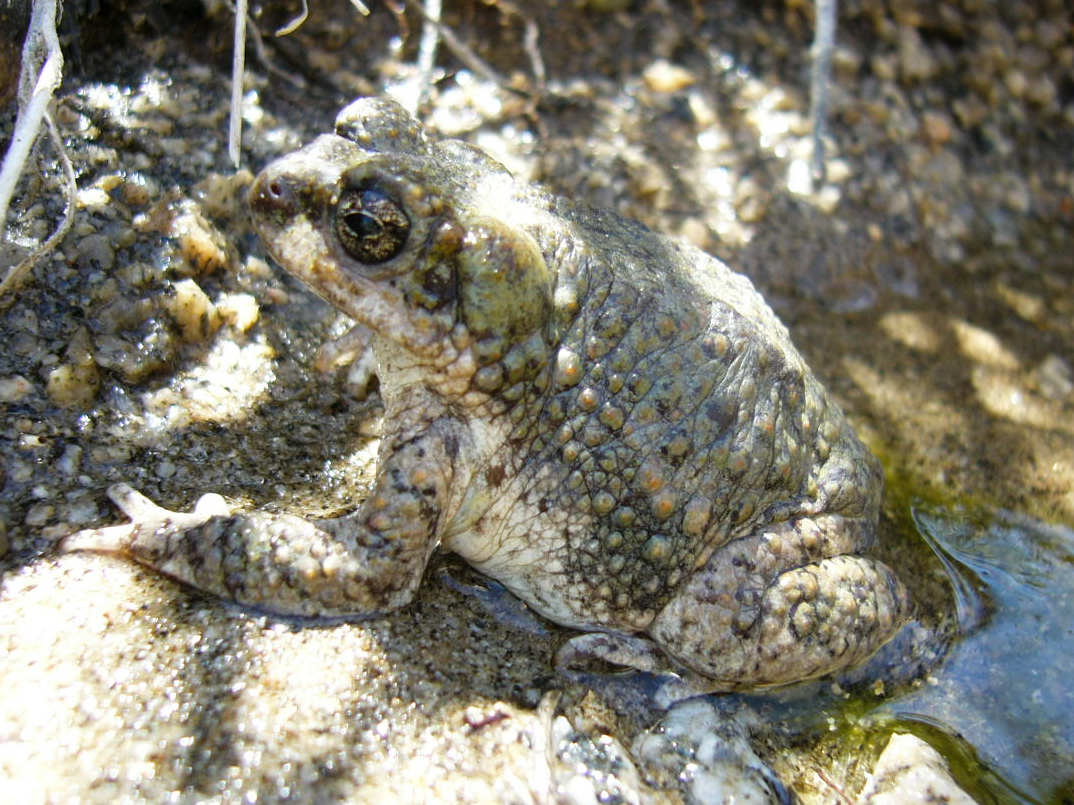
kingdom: Animalia
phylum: Chordata
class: Amphibia
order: Anura
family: Bufonidae
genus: Anaxyrus
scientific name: Anaxyrus punctatus
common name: Red-spotted toad
